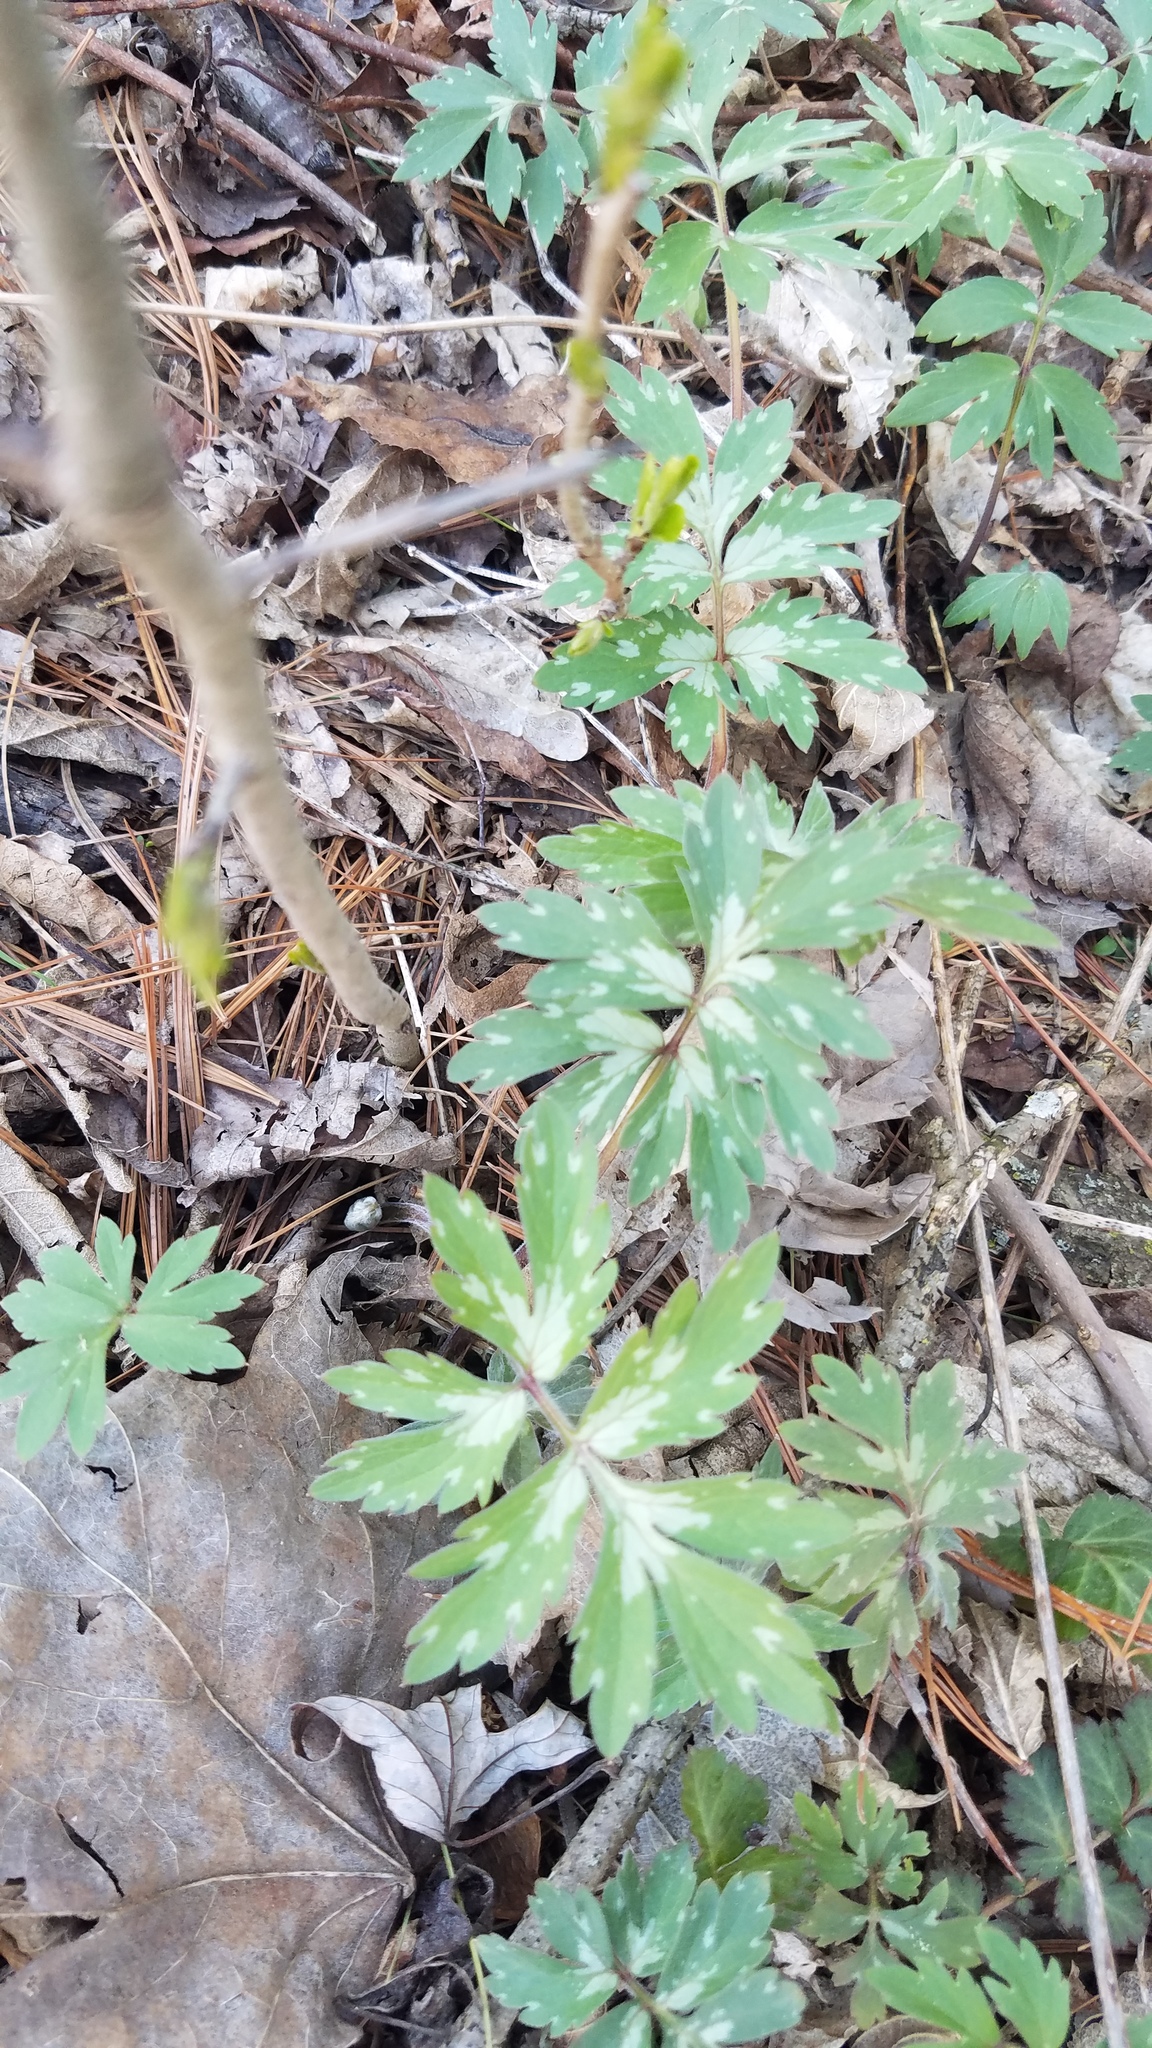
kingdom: Plantae
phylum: Tracheophyta
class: Magnoliopsida
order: Boraginales
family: Hydrophyllaceae
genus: Hydrophyllum
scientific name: Hydrophyllum virginianum
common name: Virginia waterleaf
